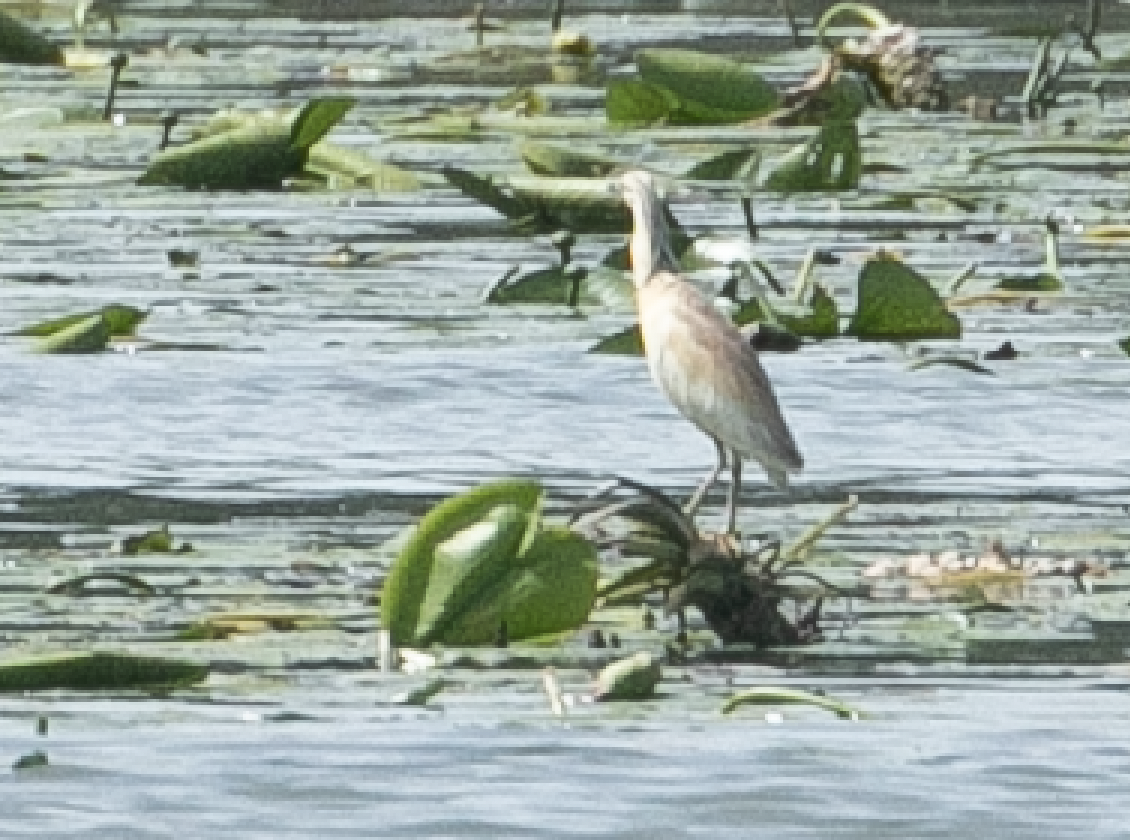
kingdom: Animalia
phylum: Chordata
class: Aves
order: Pelecaniformes
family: Ardeidae
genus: Ardeola
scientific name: Ardeola ralloides
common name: Squacco heron
